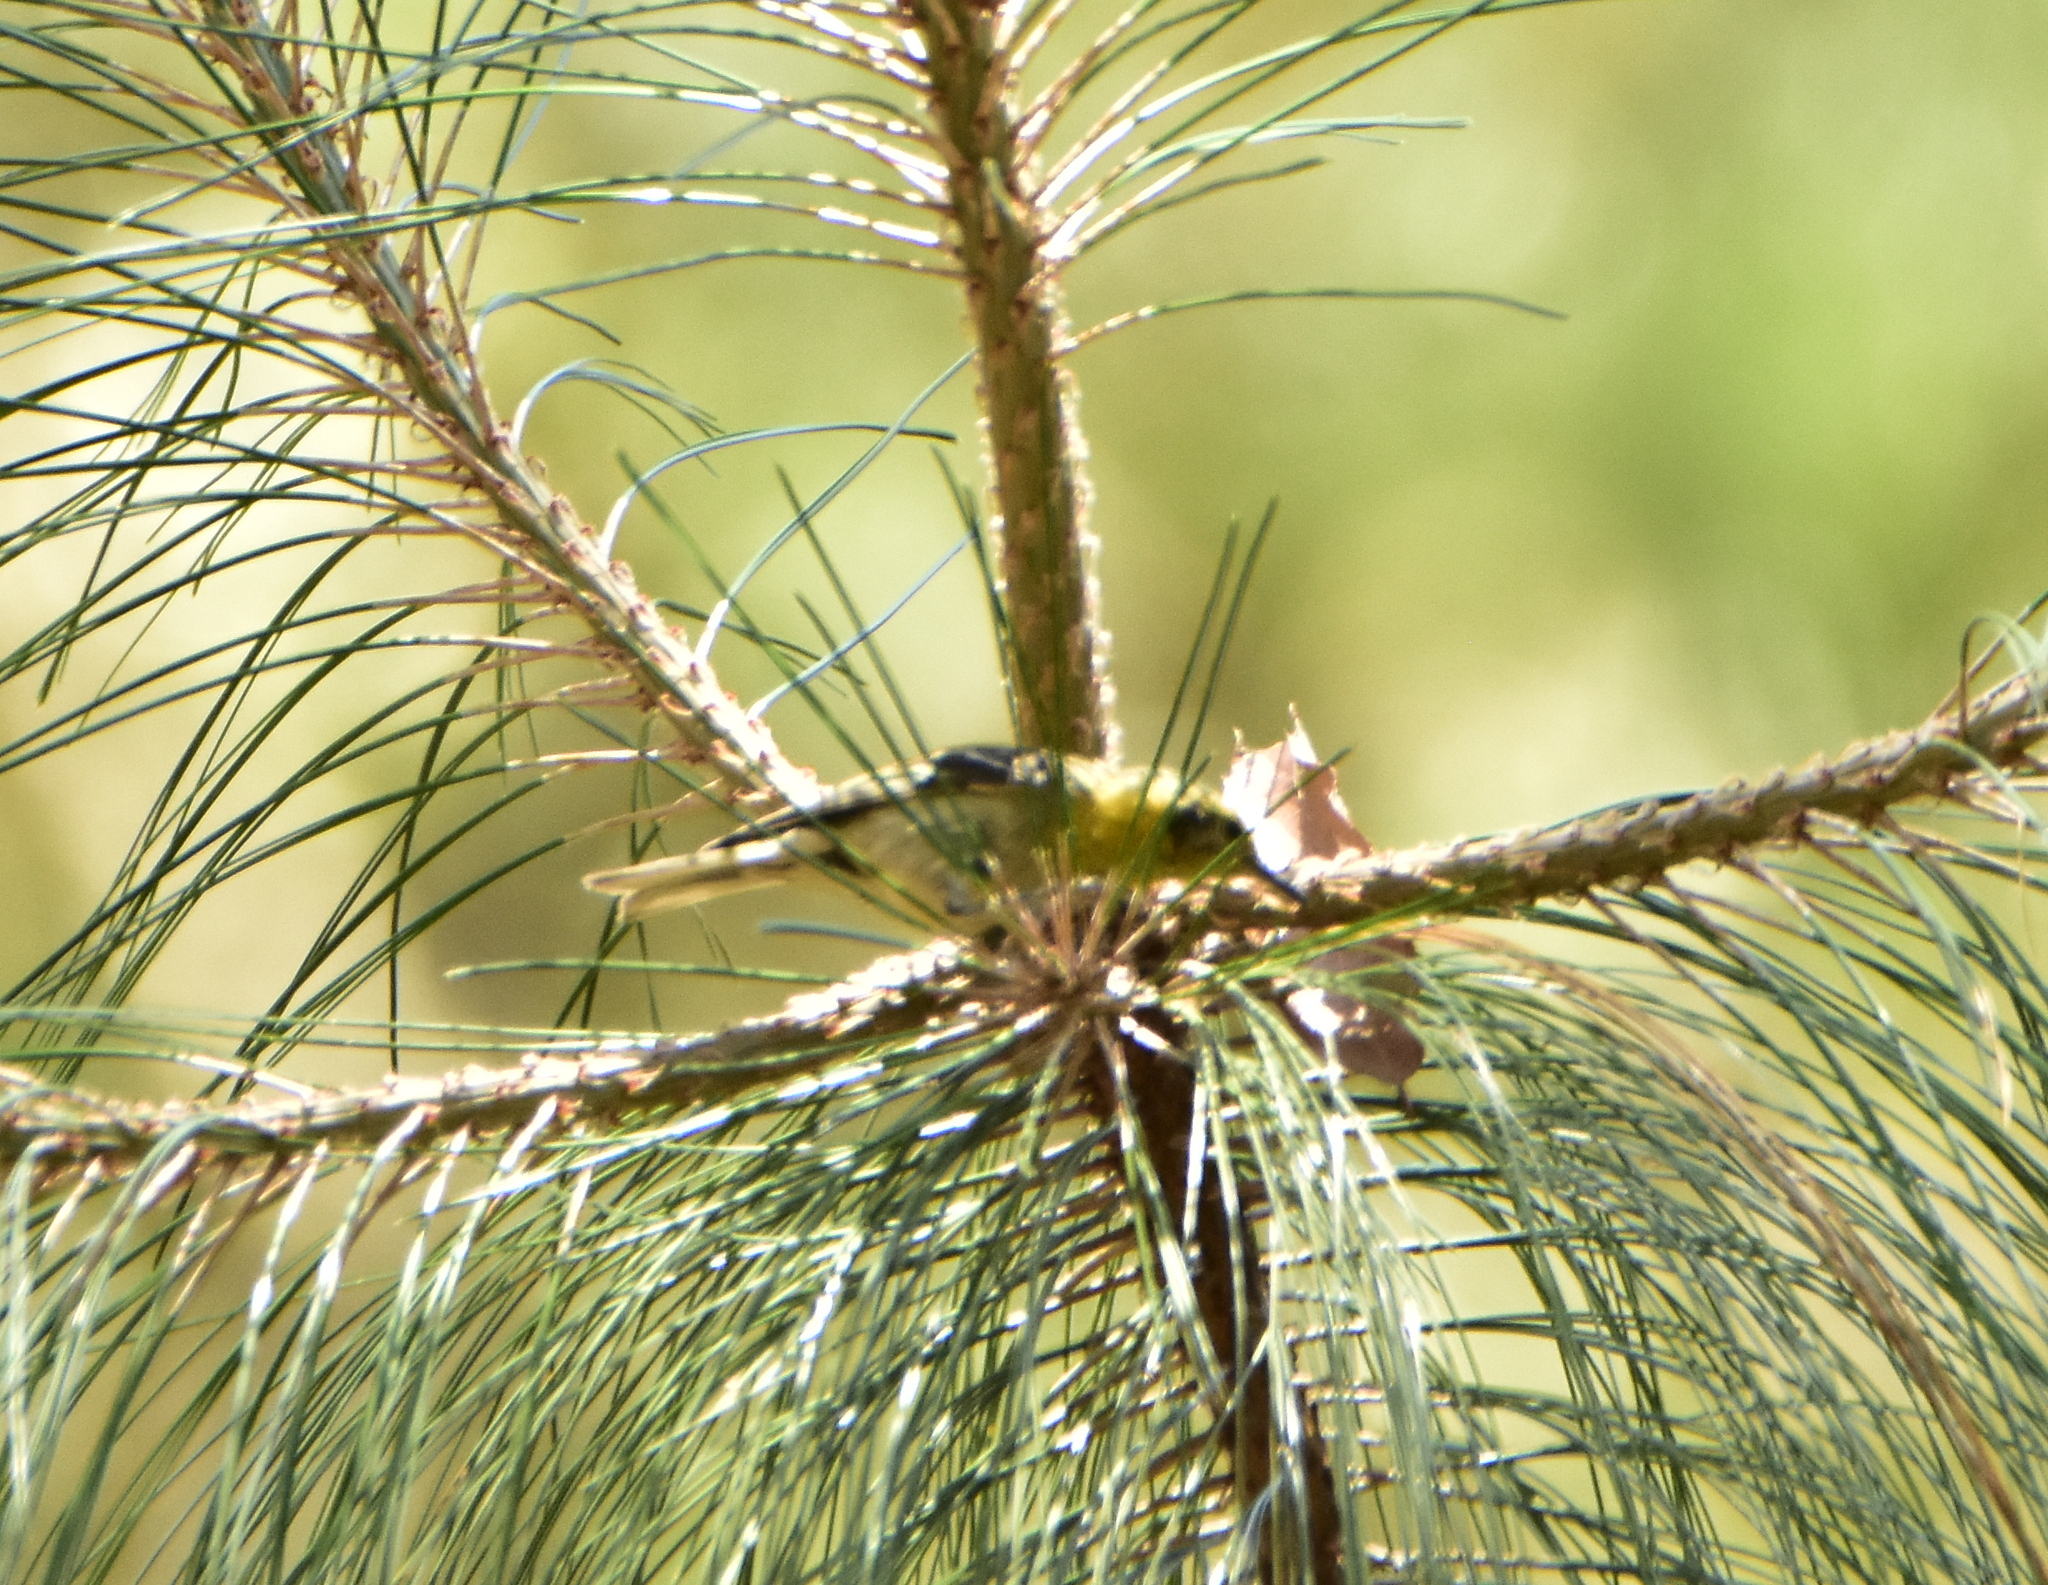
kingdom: Animalia
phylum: Chordata
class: Aves
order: Passeriformes
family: Peucedramidae
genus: Peucedramus
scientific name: Peucedramus taeniatus
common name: Olive warbler
